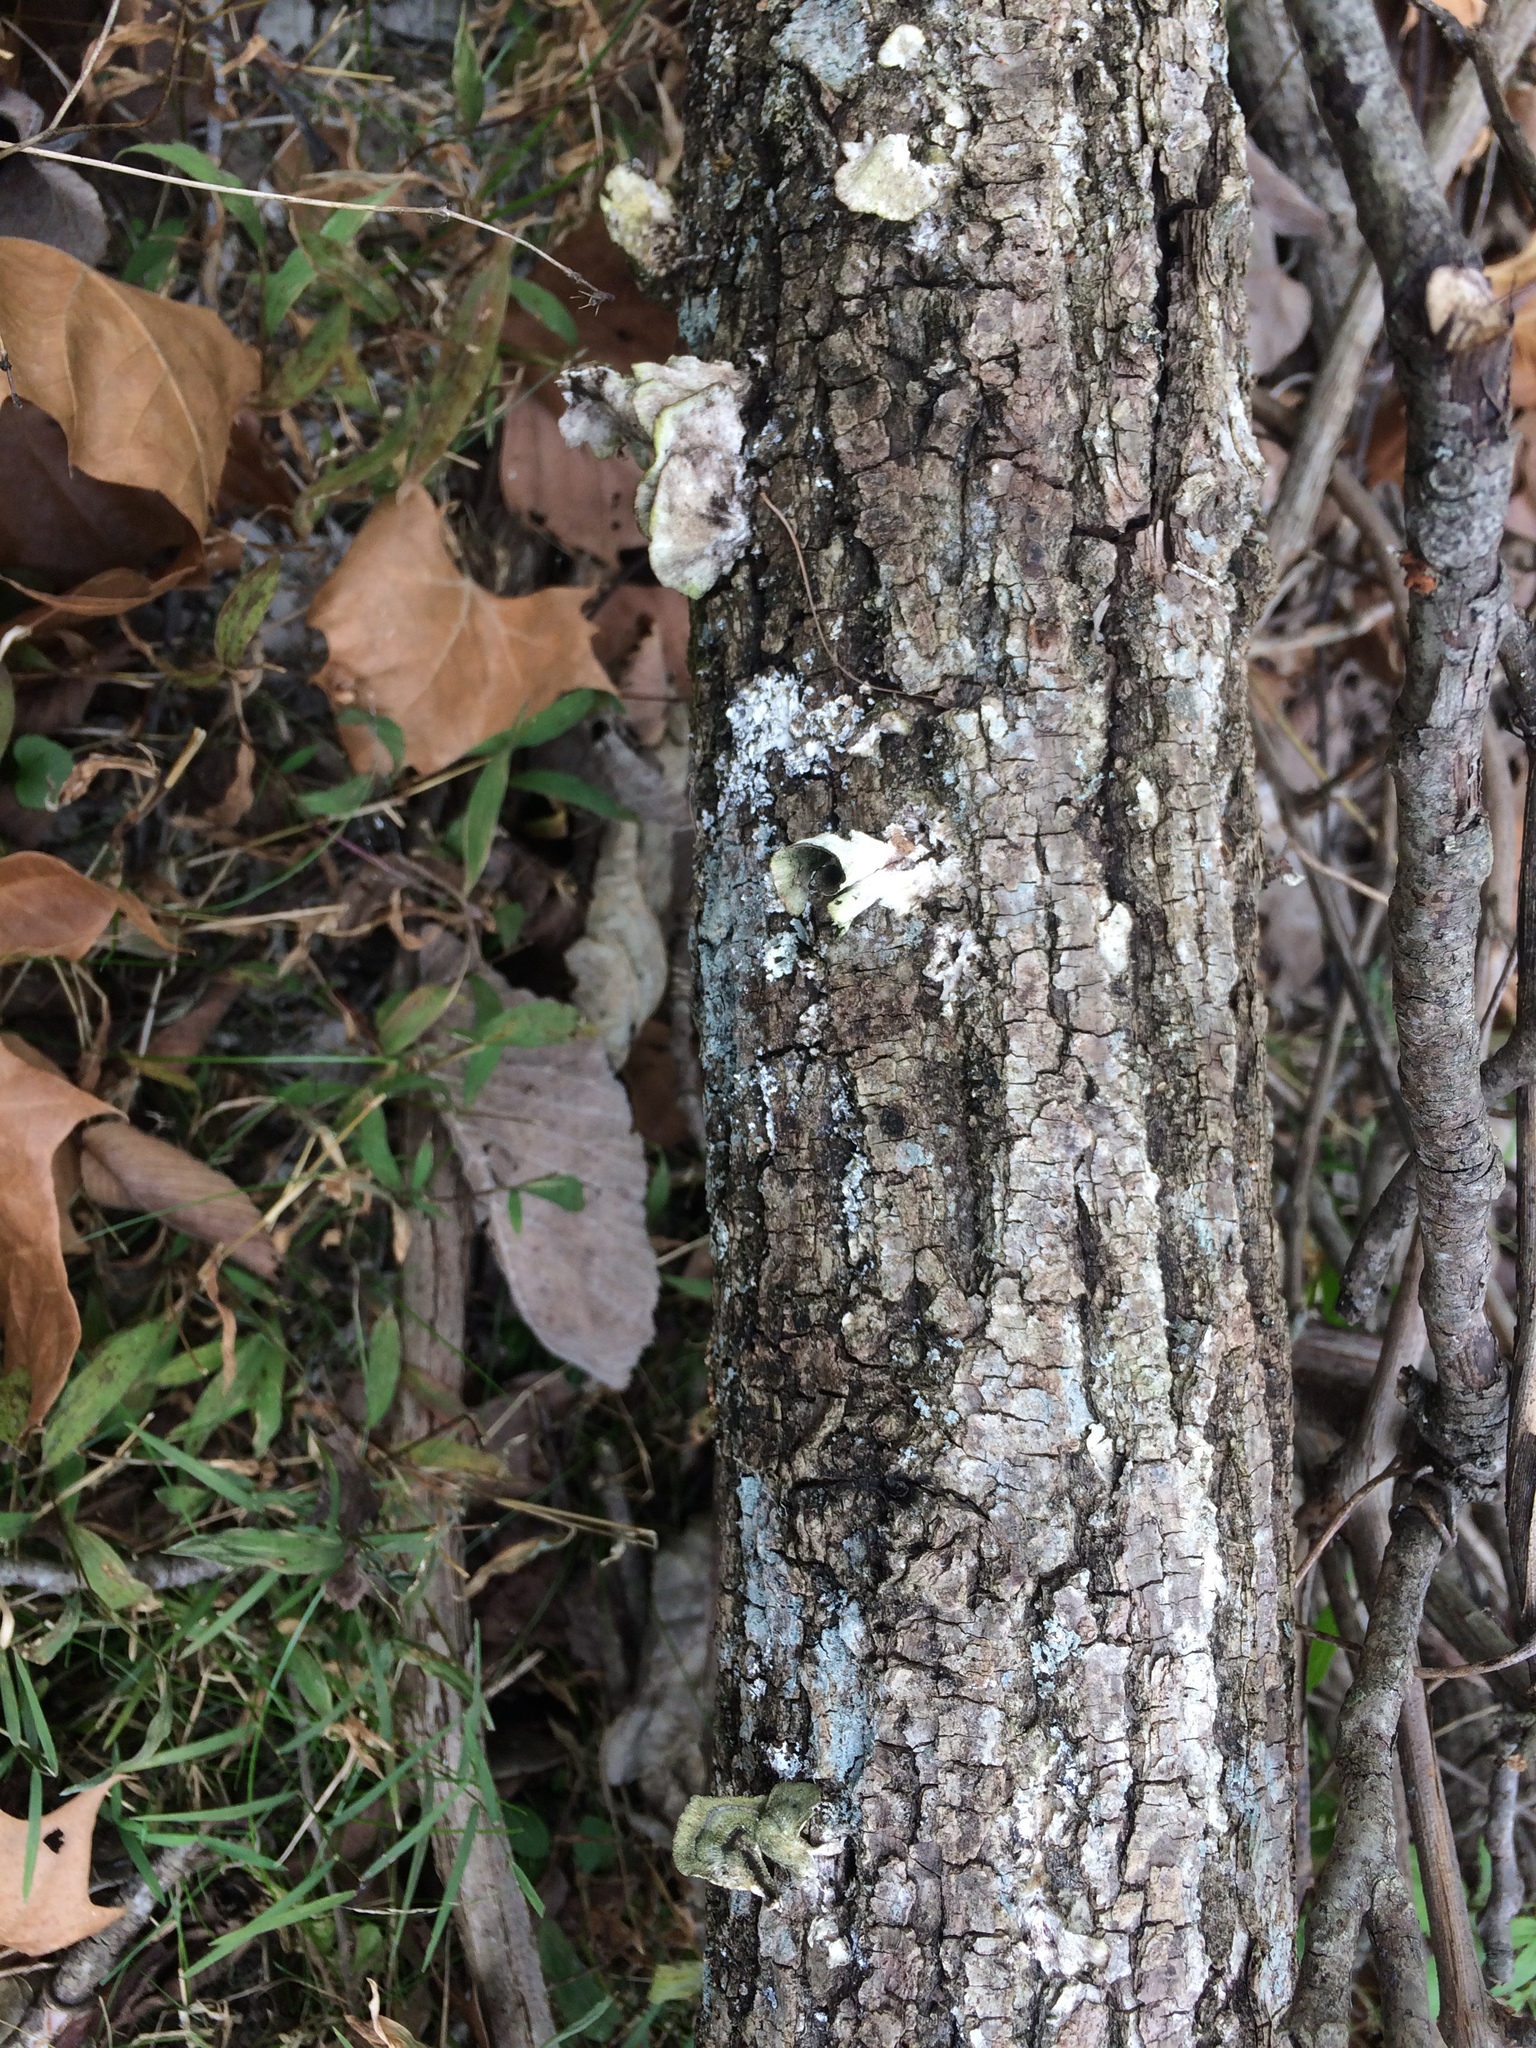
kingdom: Fungi
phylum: Basidiomycota
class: Agaricomycetes
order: Polyporales
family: Polyporaceae
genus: Trametes
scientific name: Trametes pubescens
